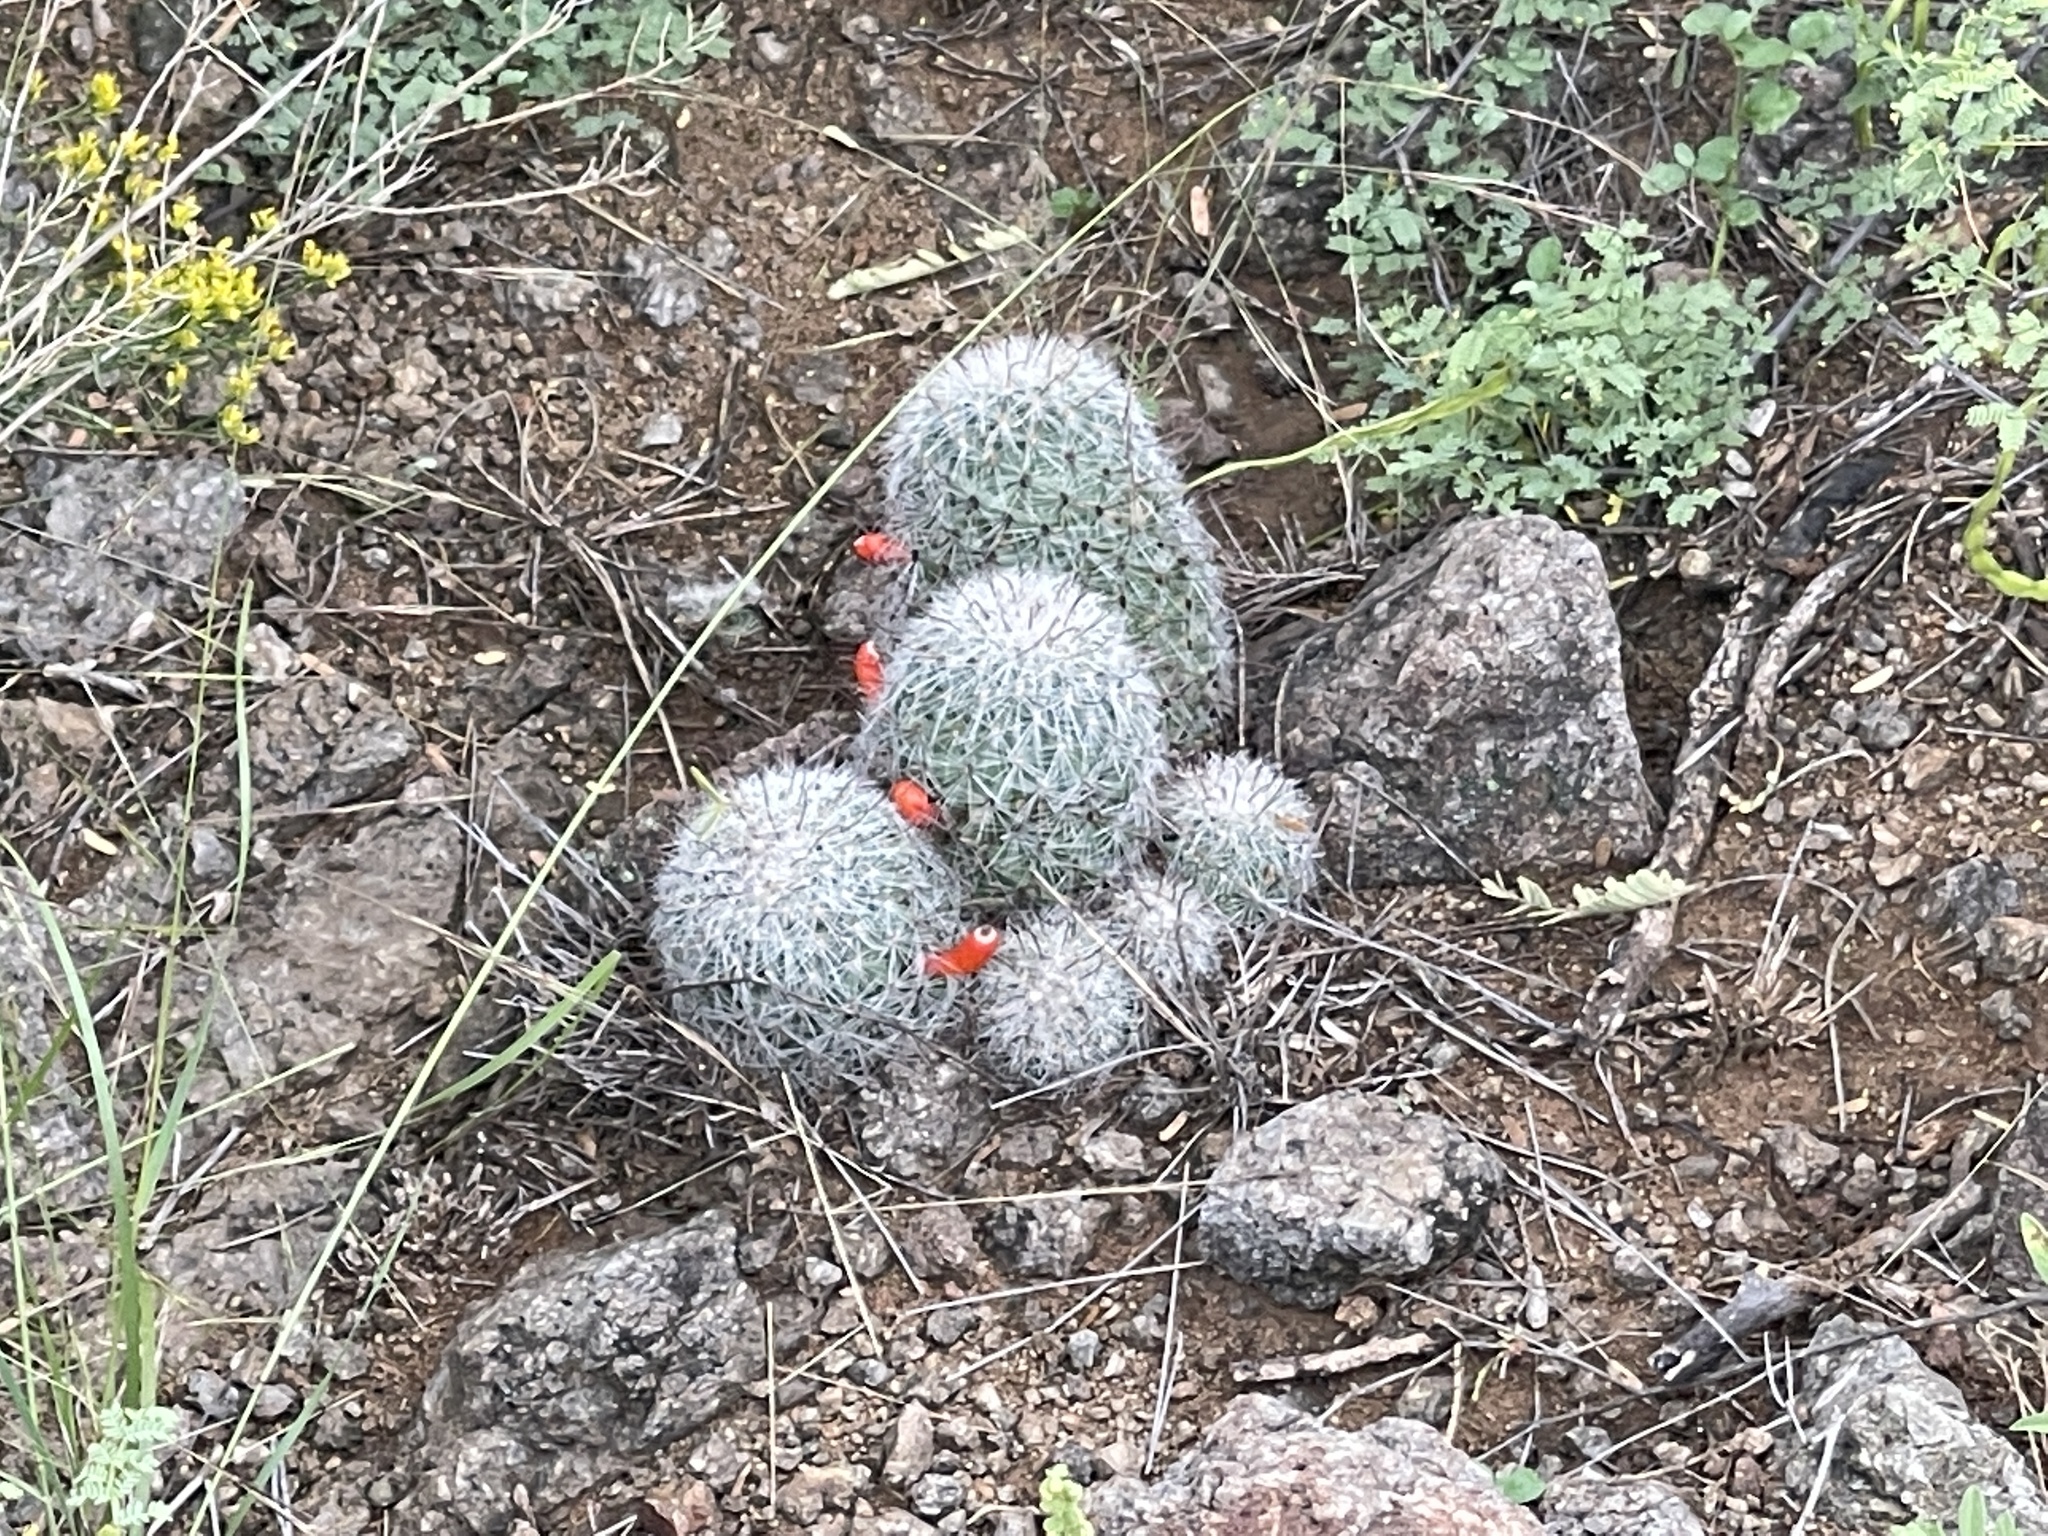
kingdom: Plantae
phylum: Tracheophyta
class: Magnoliopsida
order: Caryophyllales
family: Cactaceae
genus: Cochemiea
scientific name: Cochemiea grahamii
